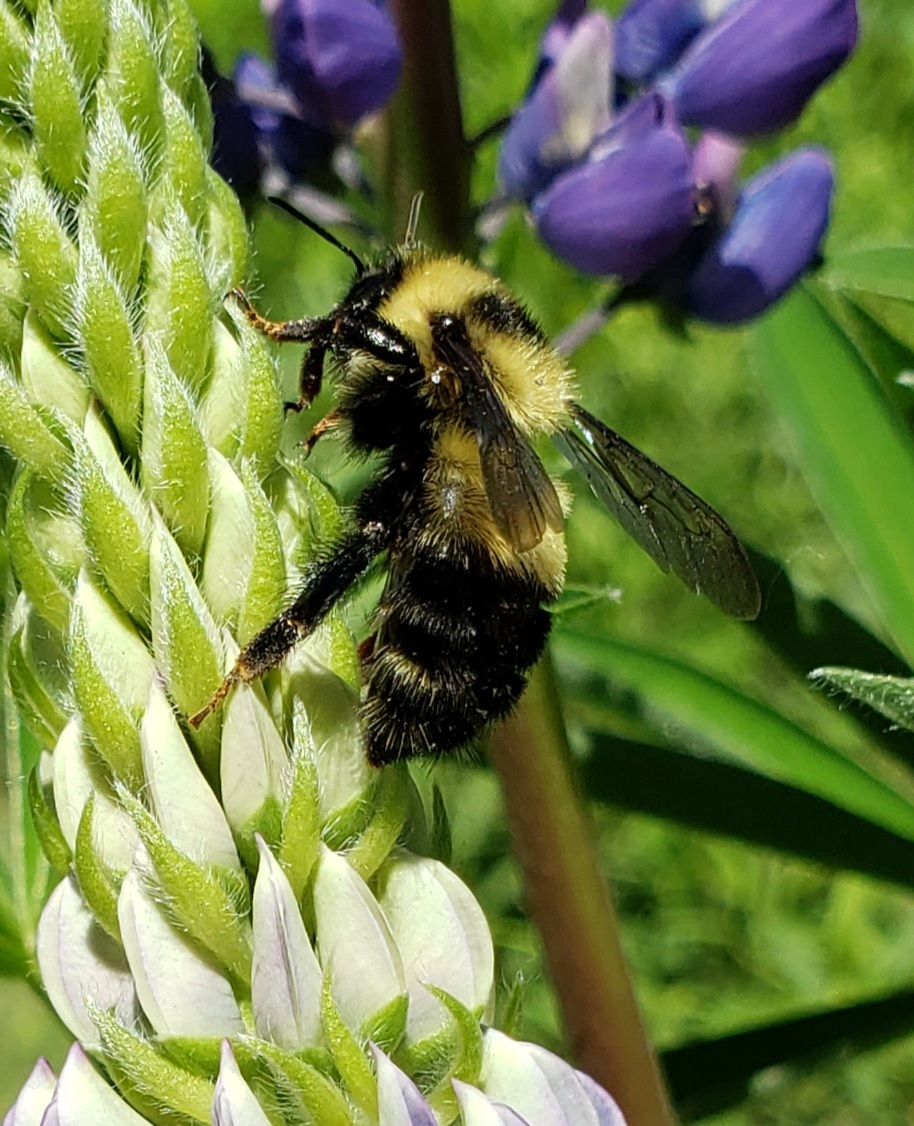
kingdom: Animalia
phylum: Arthropoda
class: Insecta
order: Hymenoptera
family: Apidae
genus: Bombus
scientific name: Bombus rufocinctus
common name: Red-belted bumble bee
